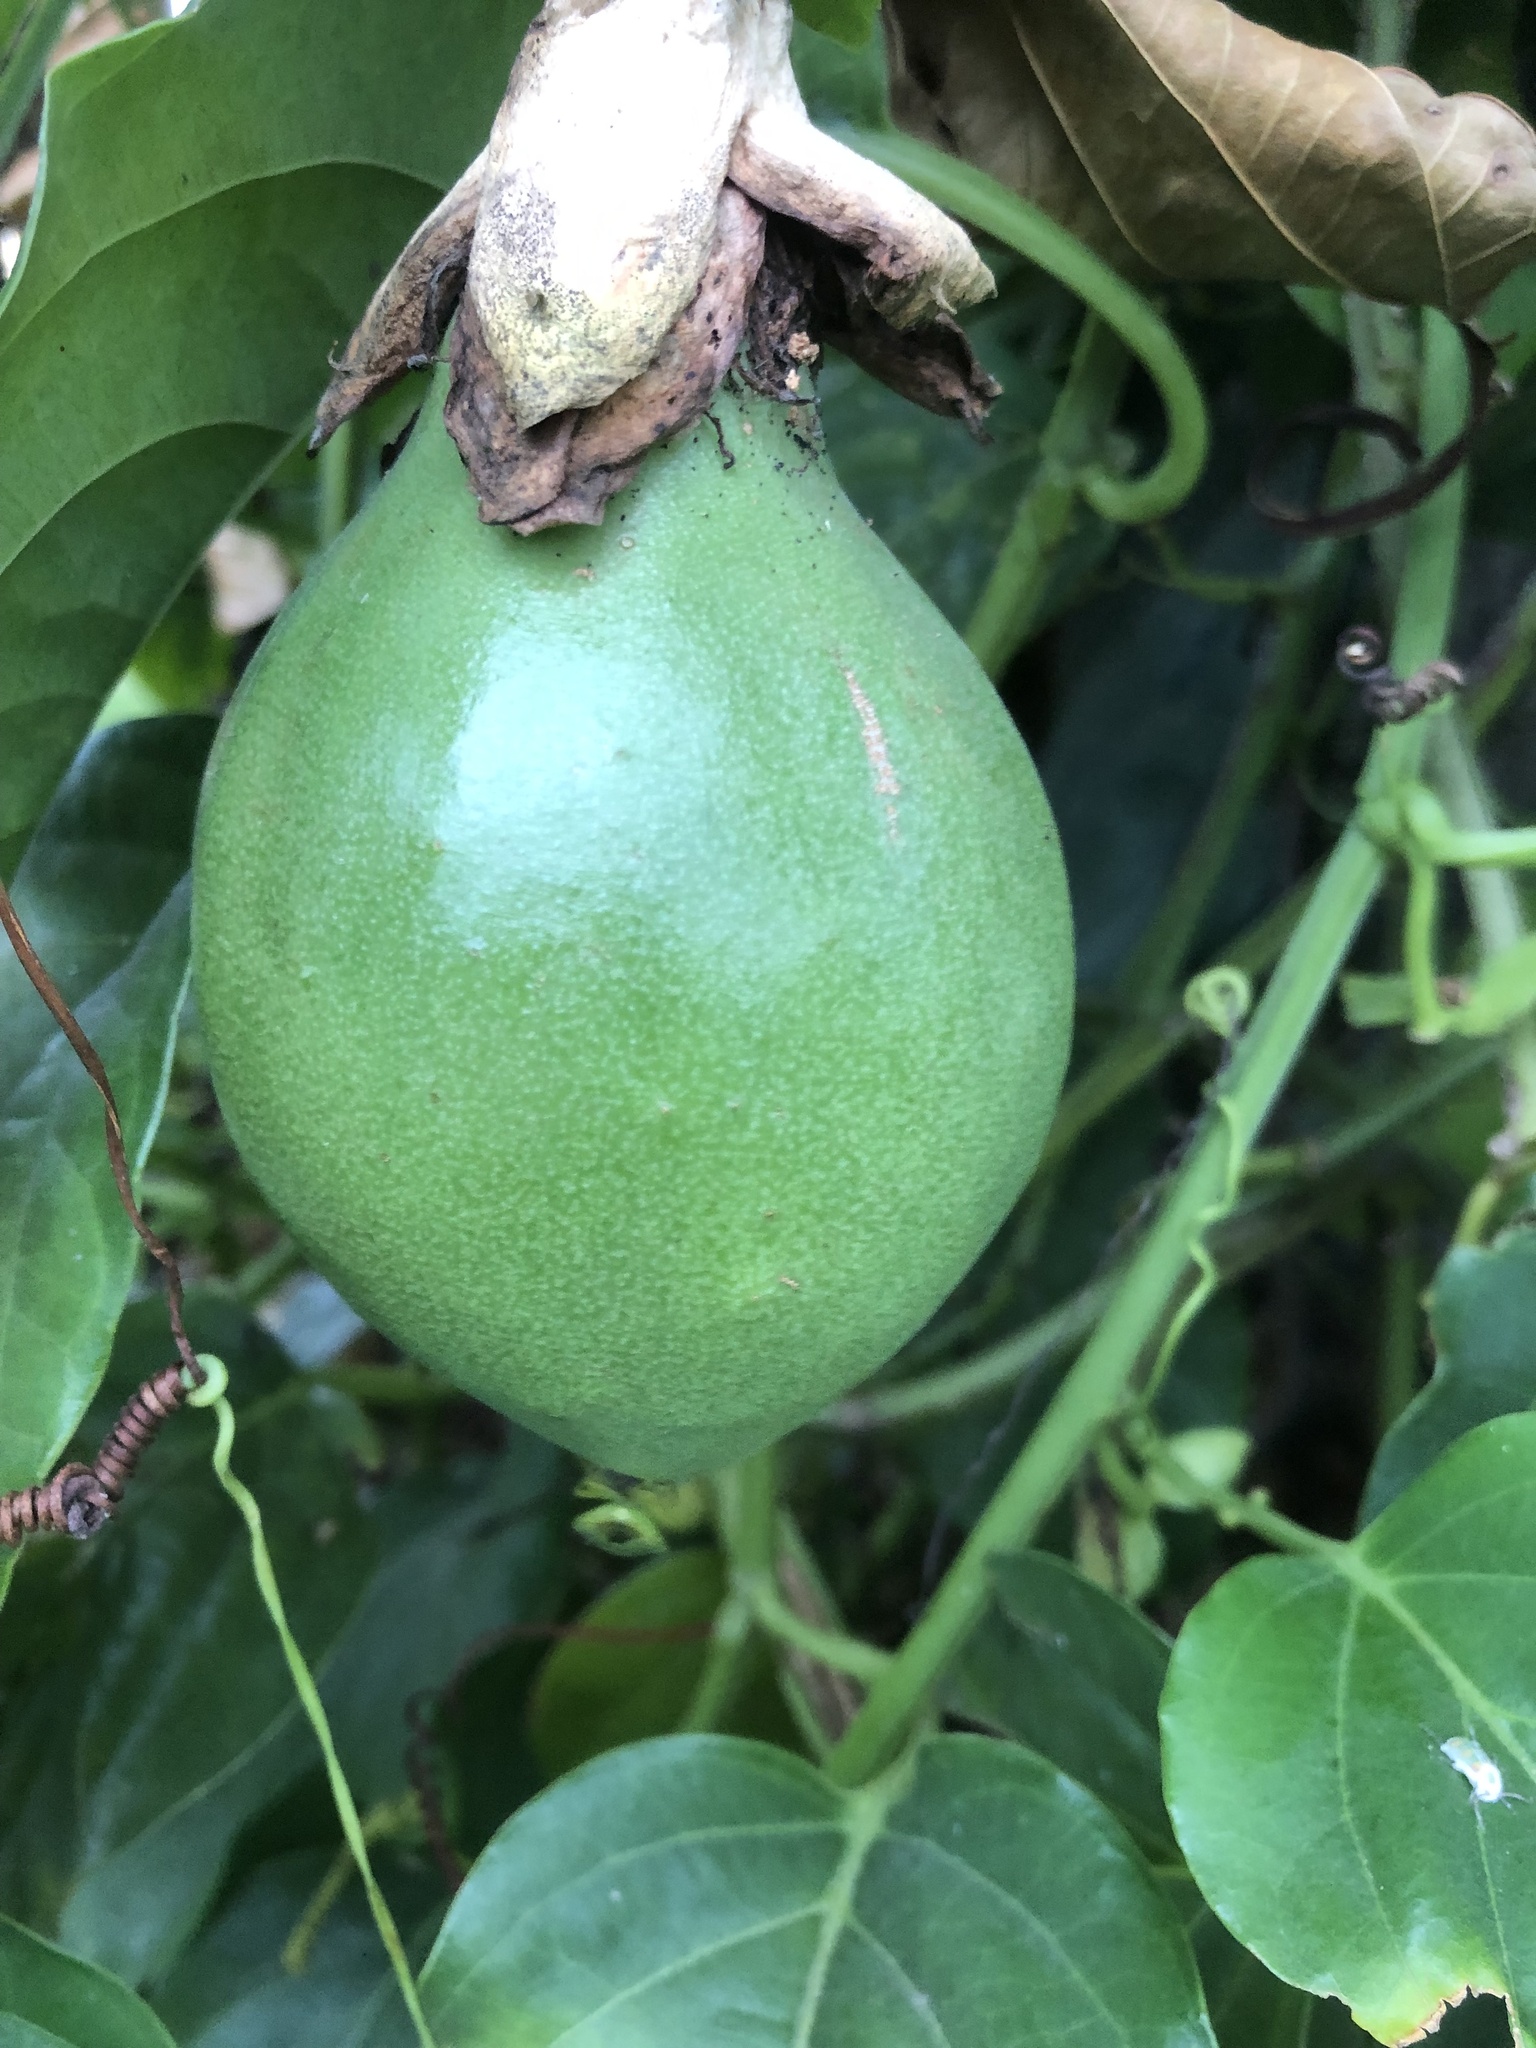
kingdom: Plantae
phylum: Tracheophyta
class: Magnoliopsida
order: Malpighiales
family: Passifloraceae
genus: Passiflora
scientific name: Passiflora alata
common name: Wing-stemmed passion flower
